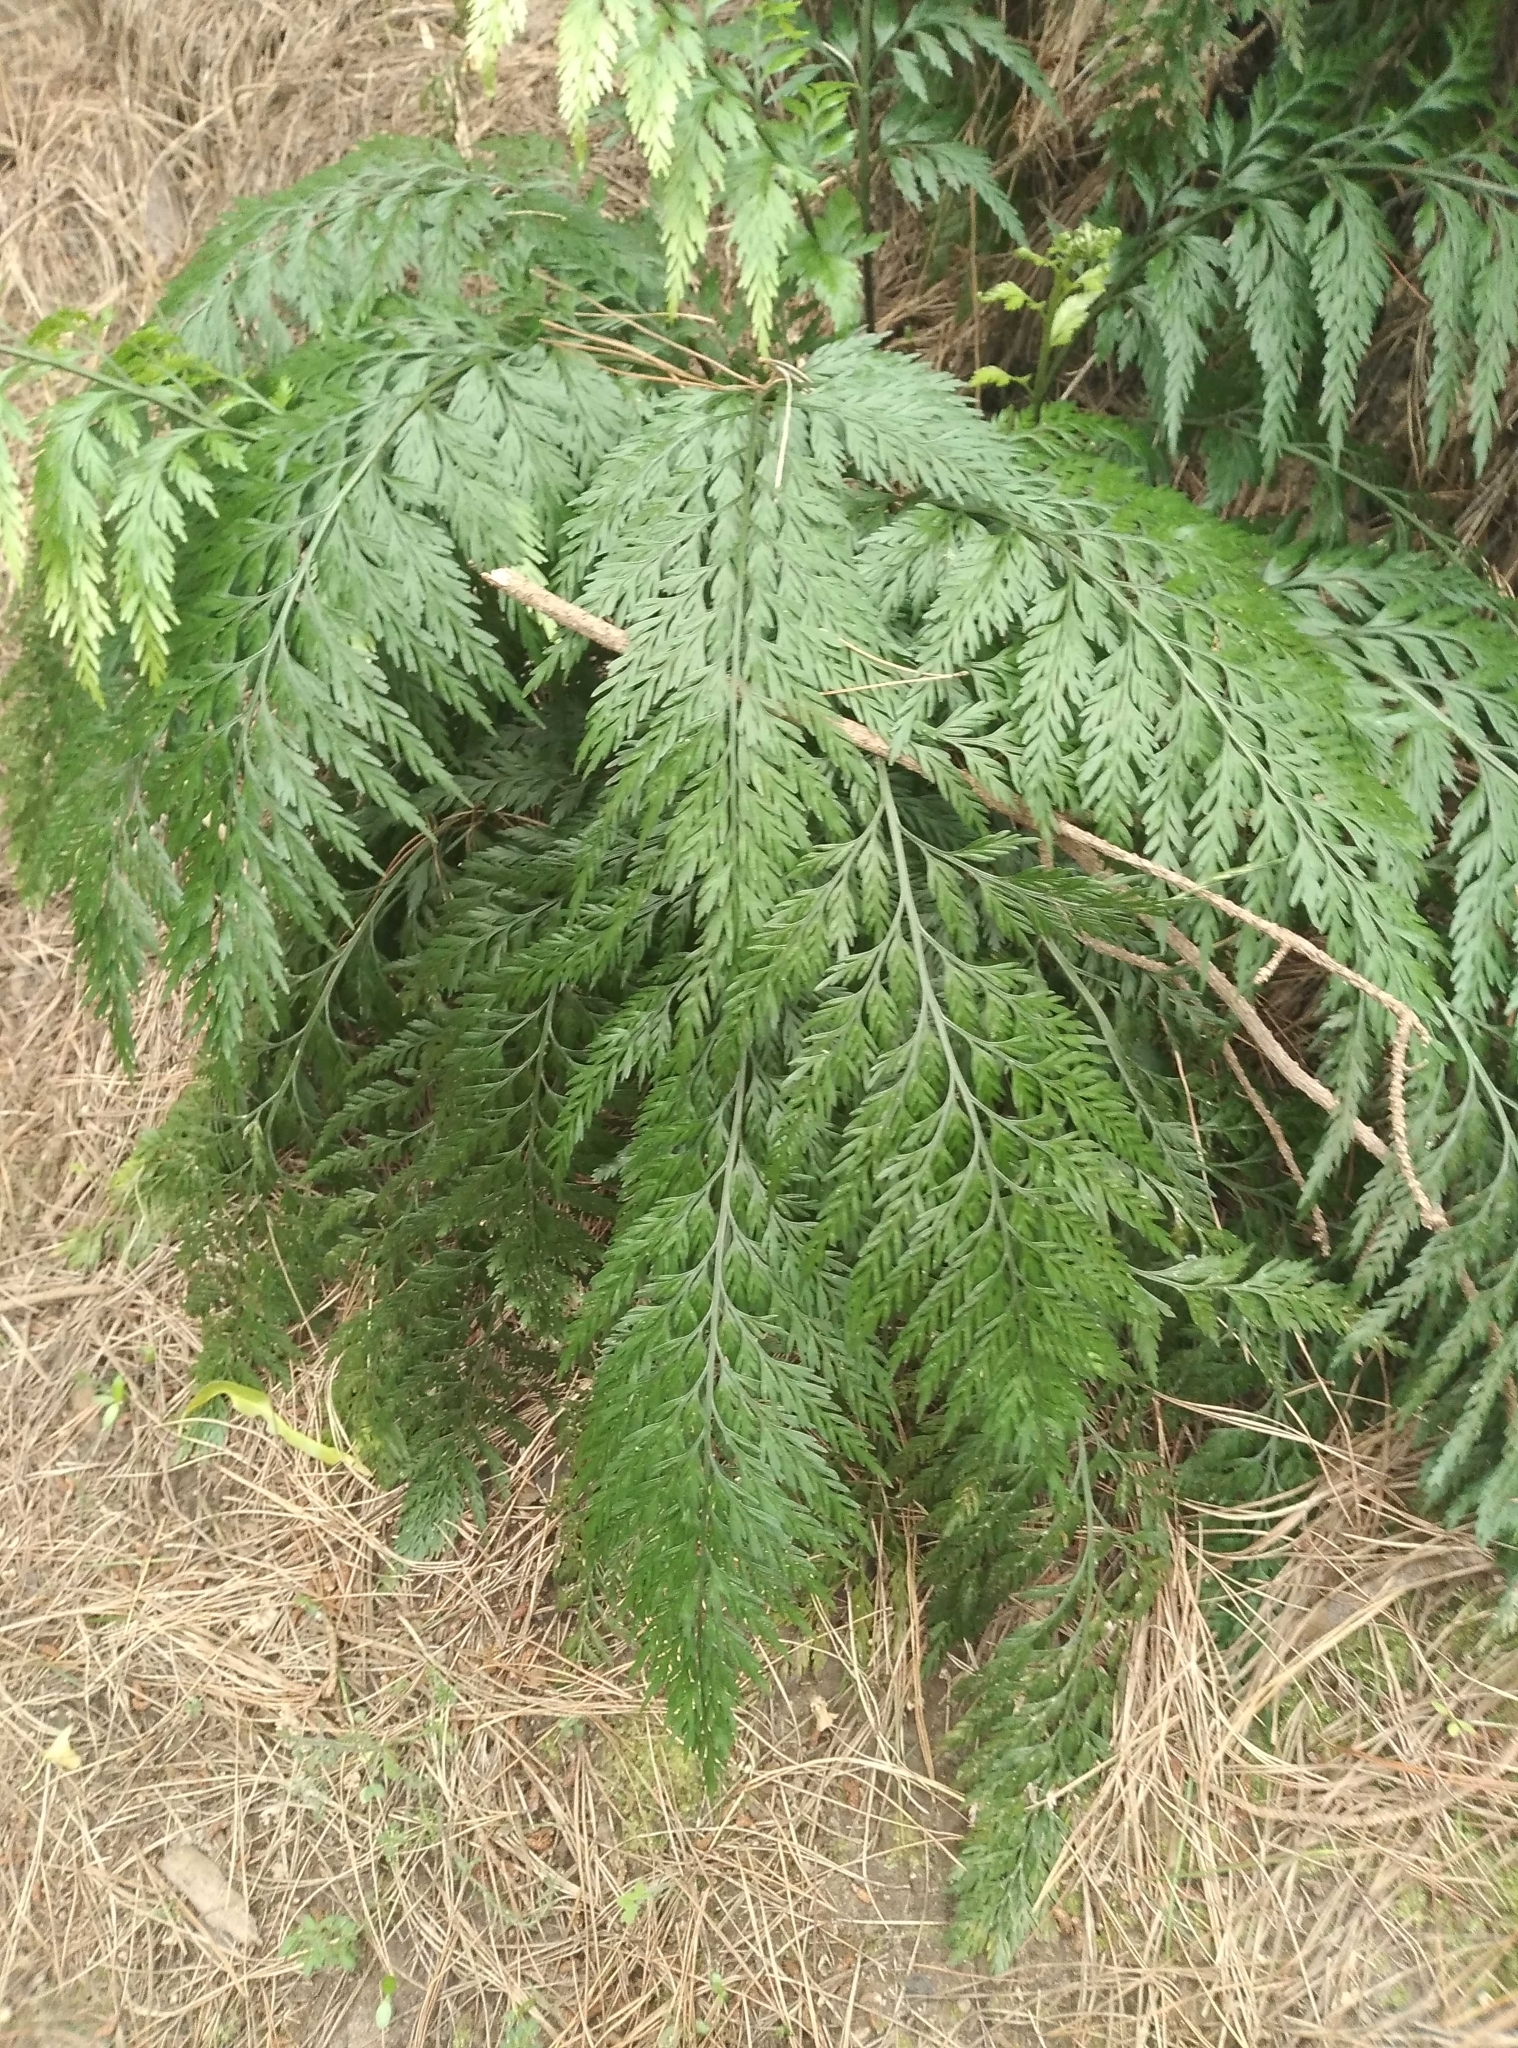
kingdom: Plantae
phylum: Tracheophyta
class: Polypodiopsida
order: Polypodiales
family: Aspleniaceae
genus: Asplenium
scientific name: Asplenium appendiculatum
